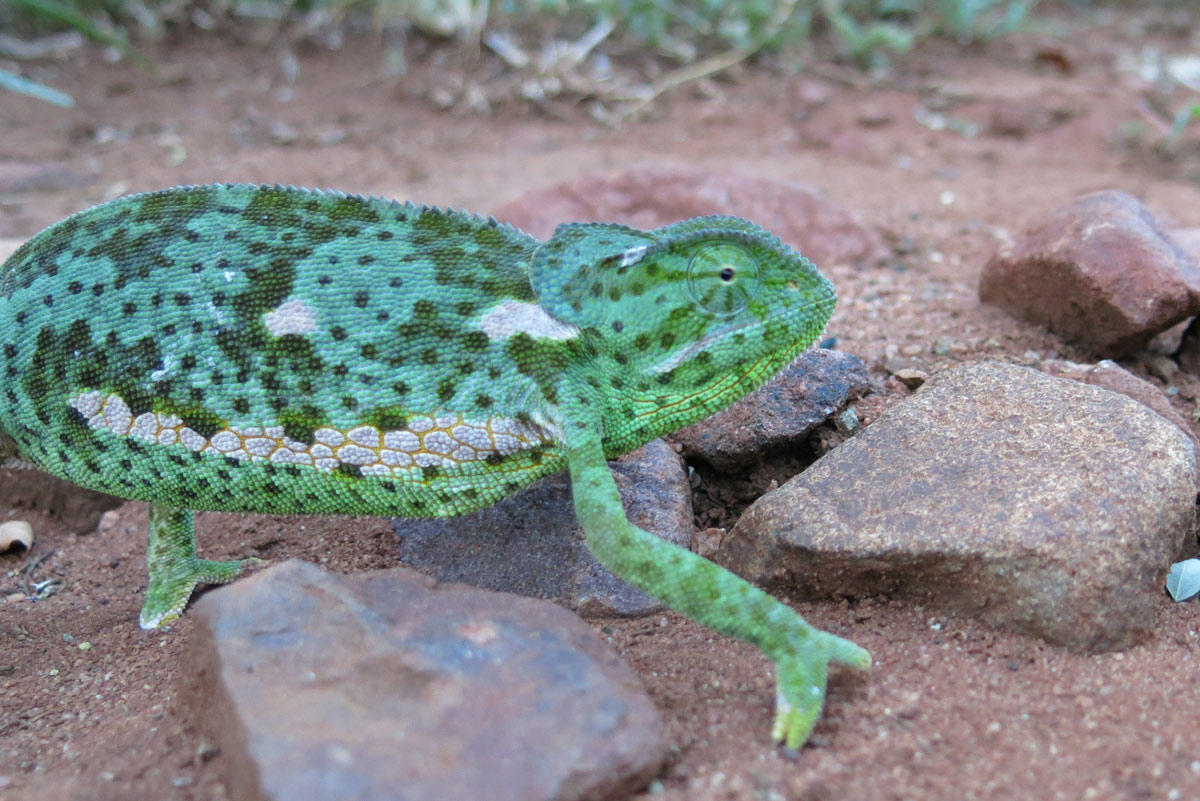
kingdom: Animalia
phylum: Chordata
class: Squamata
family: Chamaeleonidae
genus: Chamaeleo
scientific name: Chamaeleo dilepis
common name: Flapneck chameleon
